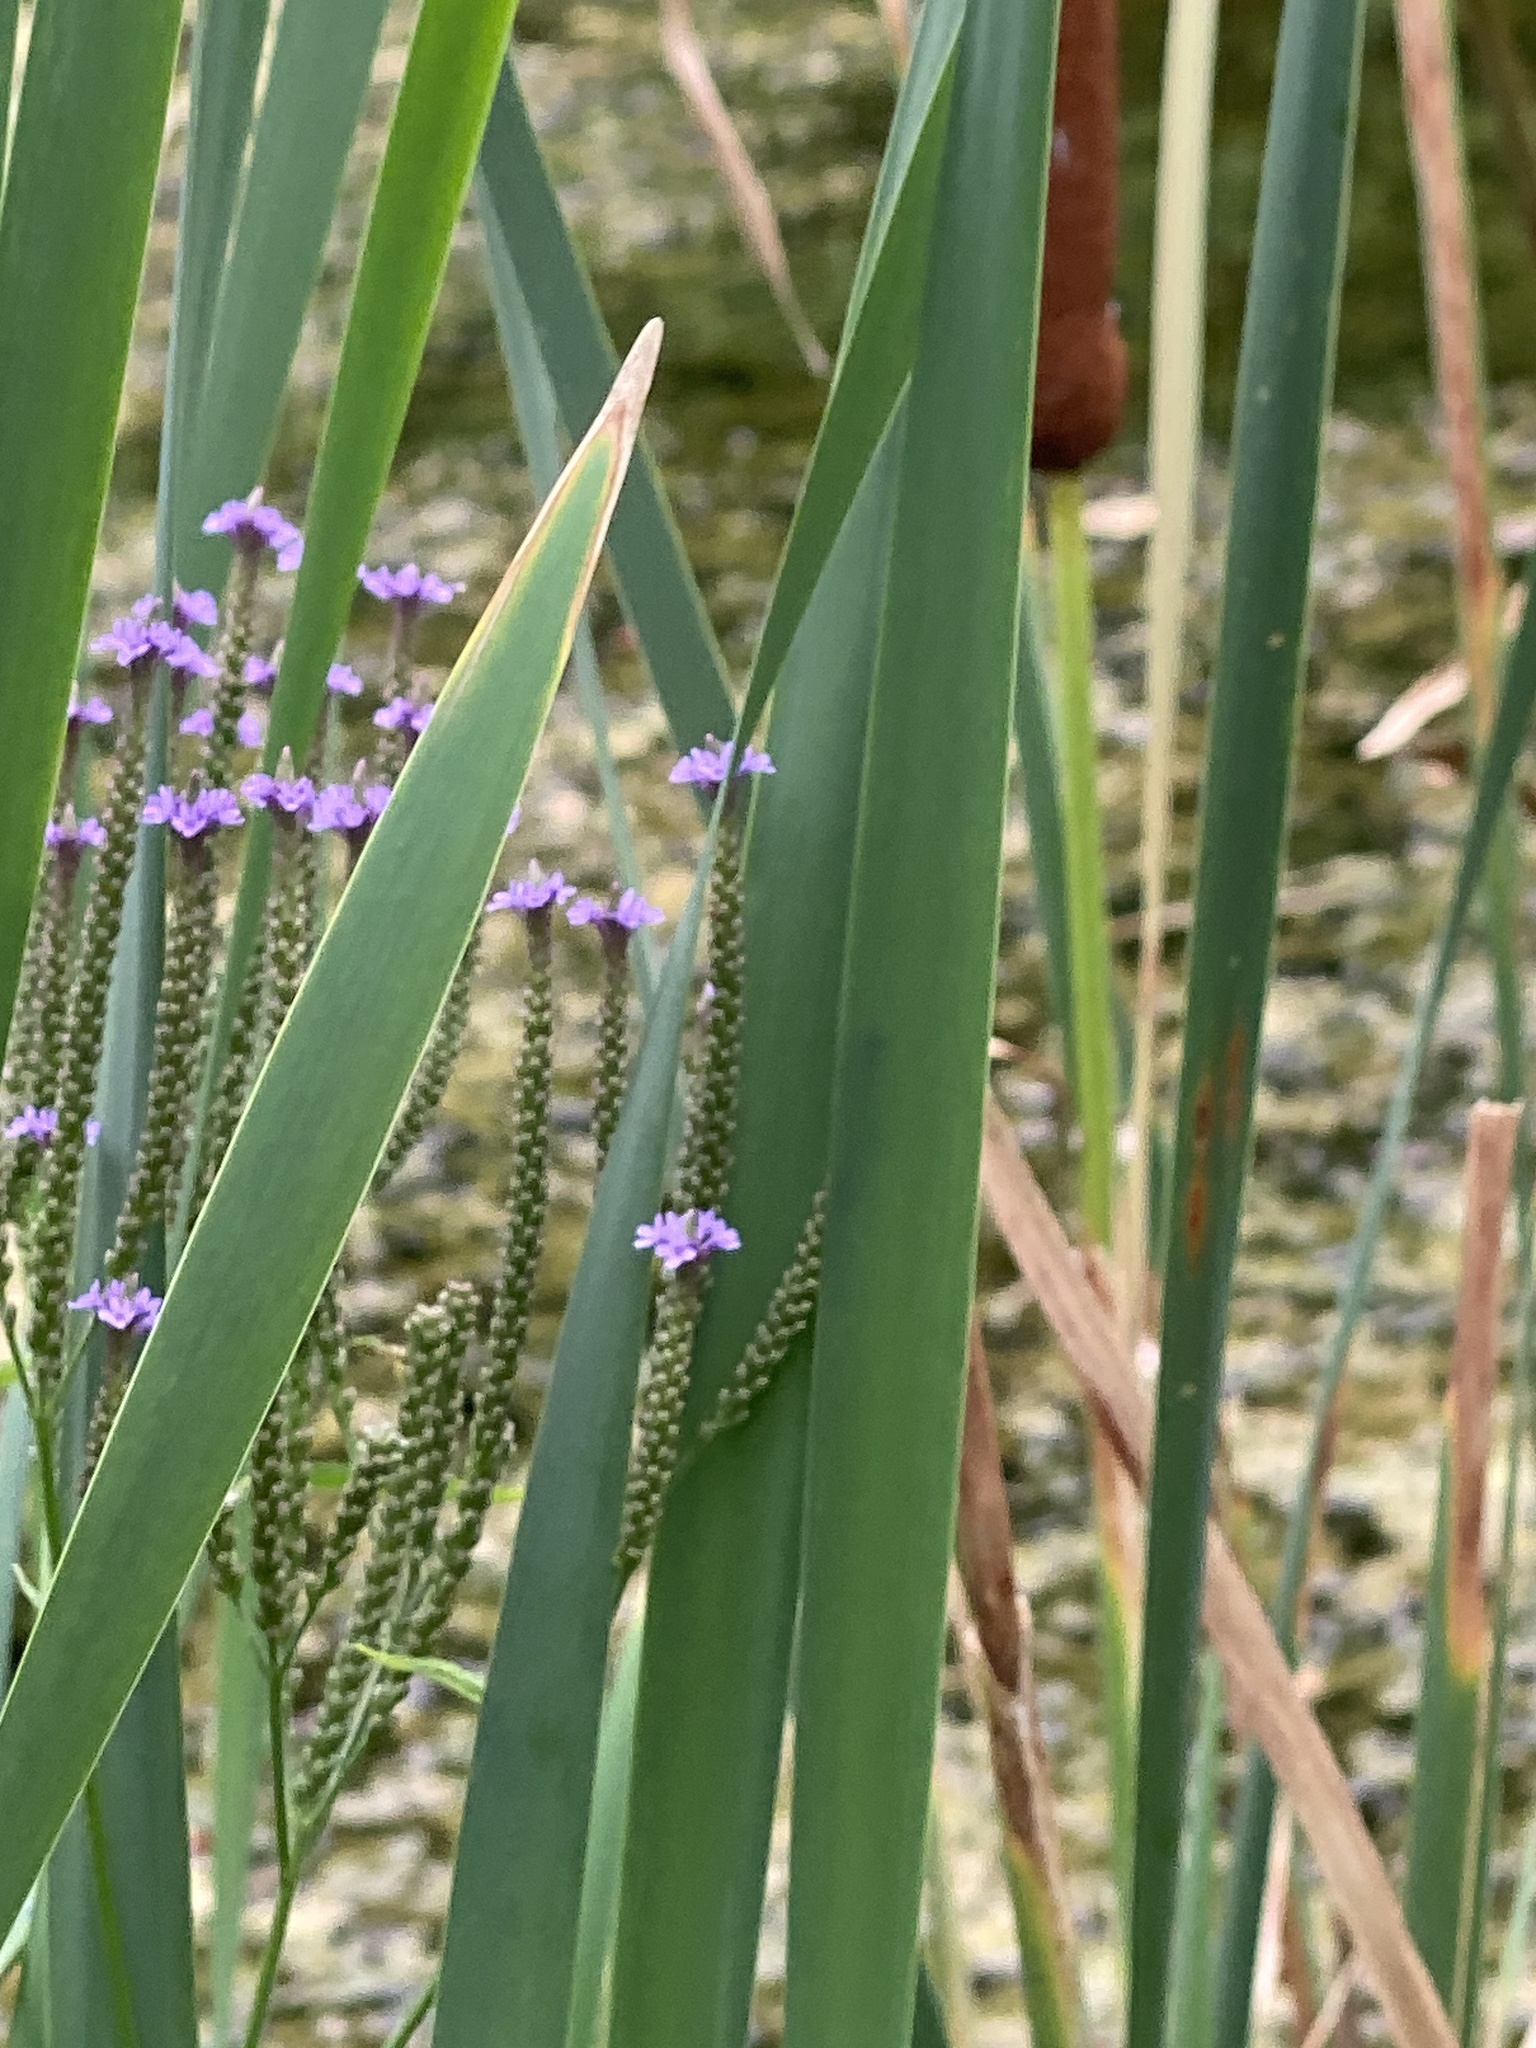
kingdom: Plantae
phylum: Tracheophyta
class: Magnoliopsida
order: Lamiales
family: Verbenaceae
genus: Verbena
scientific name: Verbena hastata
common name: American blue vervain
